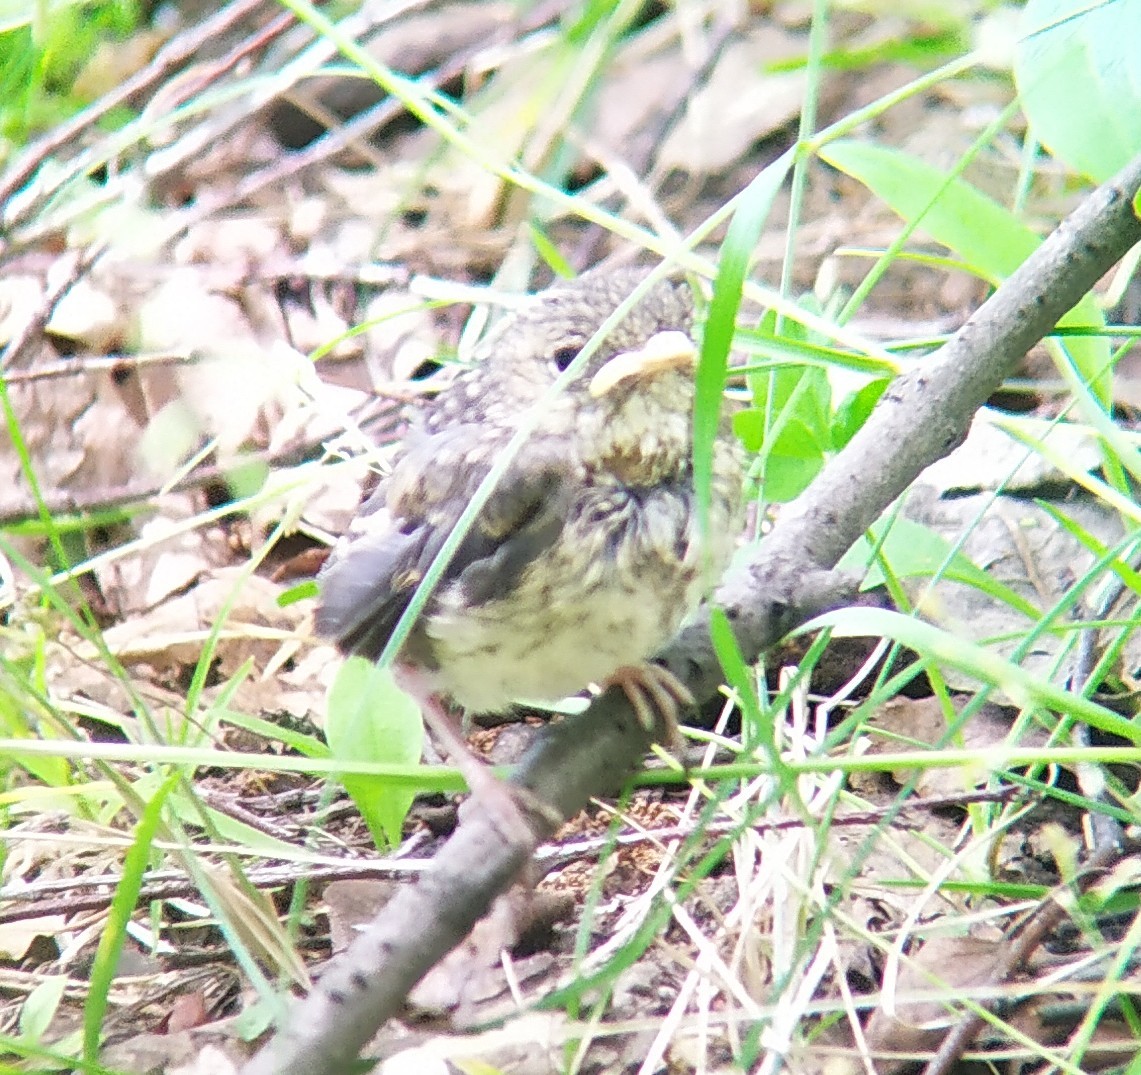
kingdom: Animalia
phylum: Chordata
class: Aves
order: Passeriformes
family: Muscicapidae
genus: Phoenicurus
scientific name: Phoenicurus phoenicurus
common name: Common redstart
